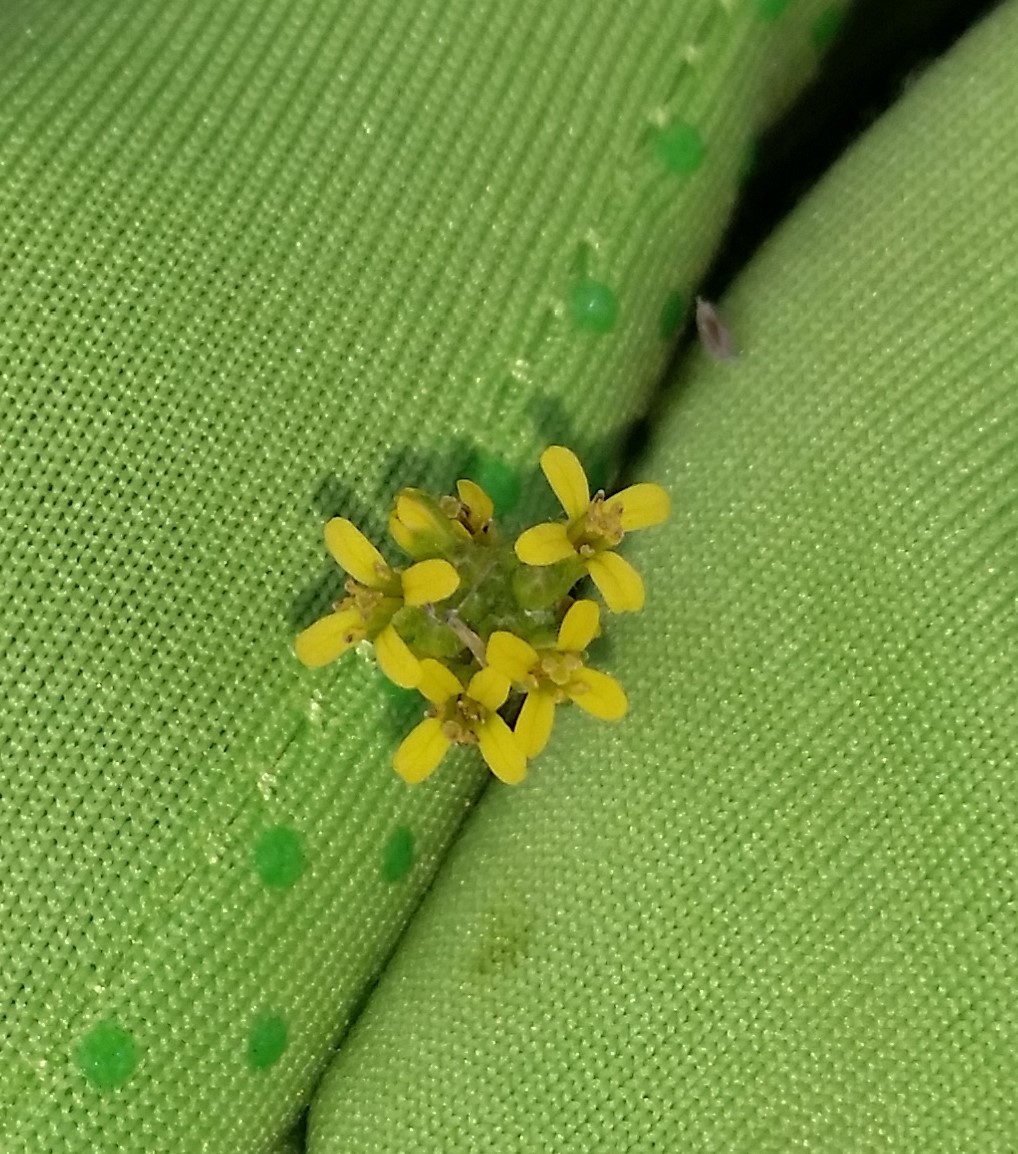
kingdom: Plantae
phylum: Tracheophyta
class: Magnoliopsida
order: Brassicales
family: Brassicaceae
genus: Sisymbrium
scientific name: Sisymbrium officinale
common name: Hedge mustard
